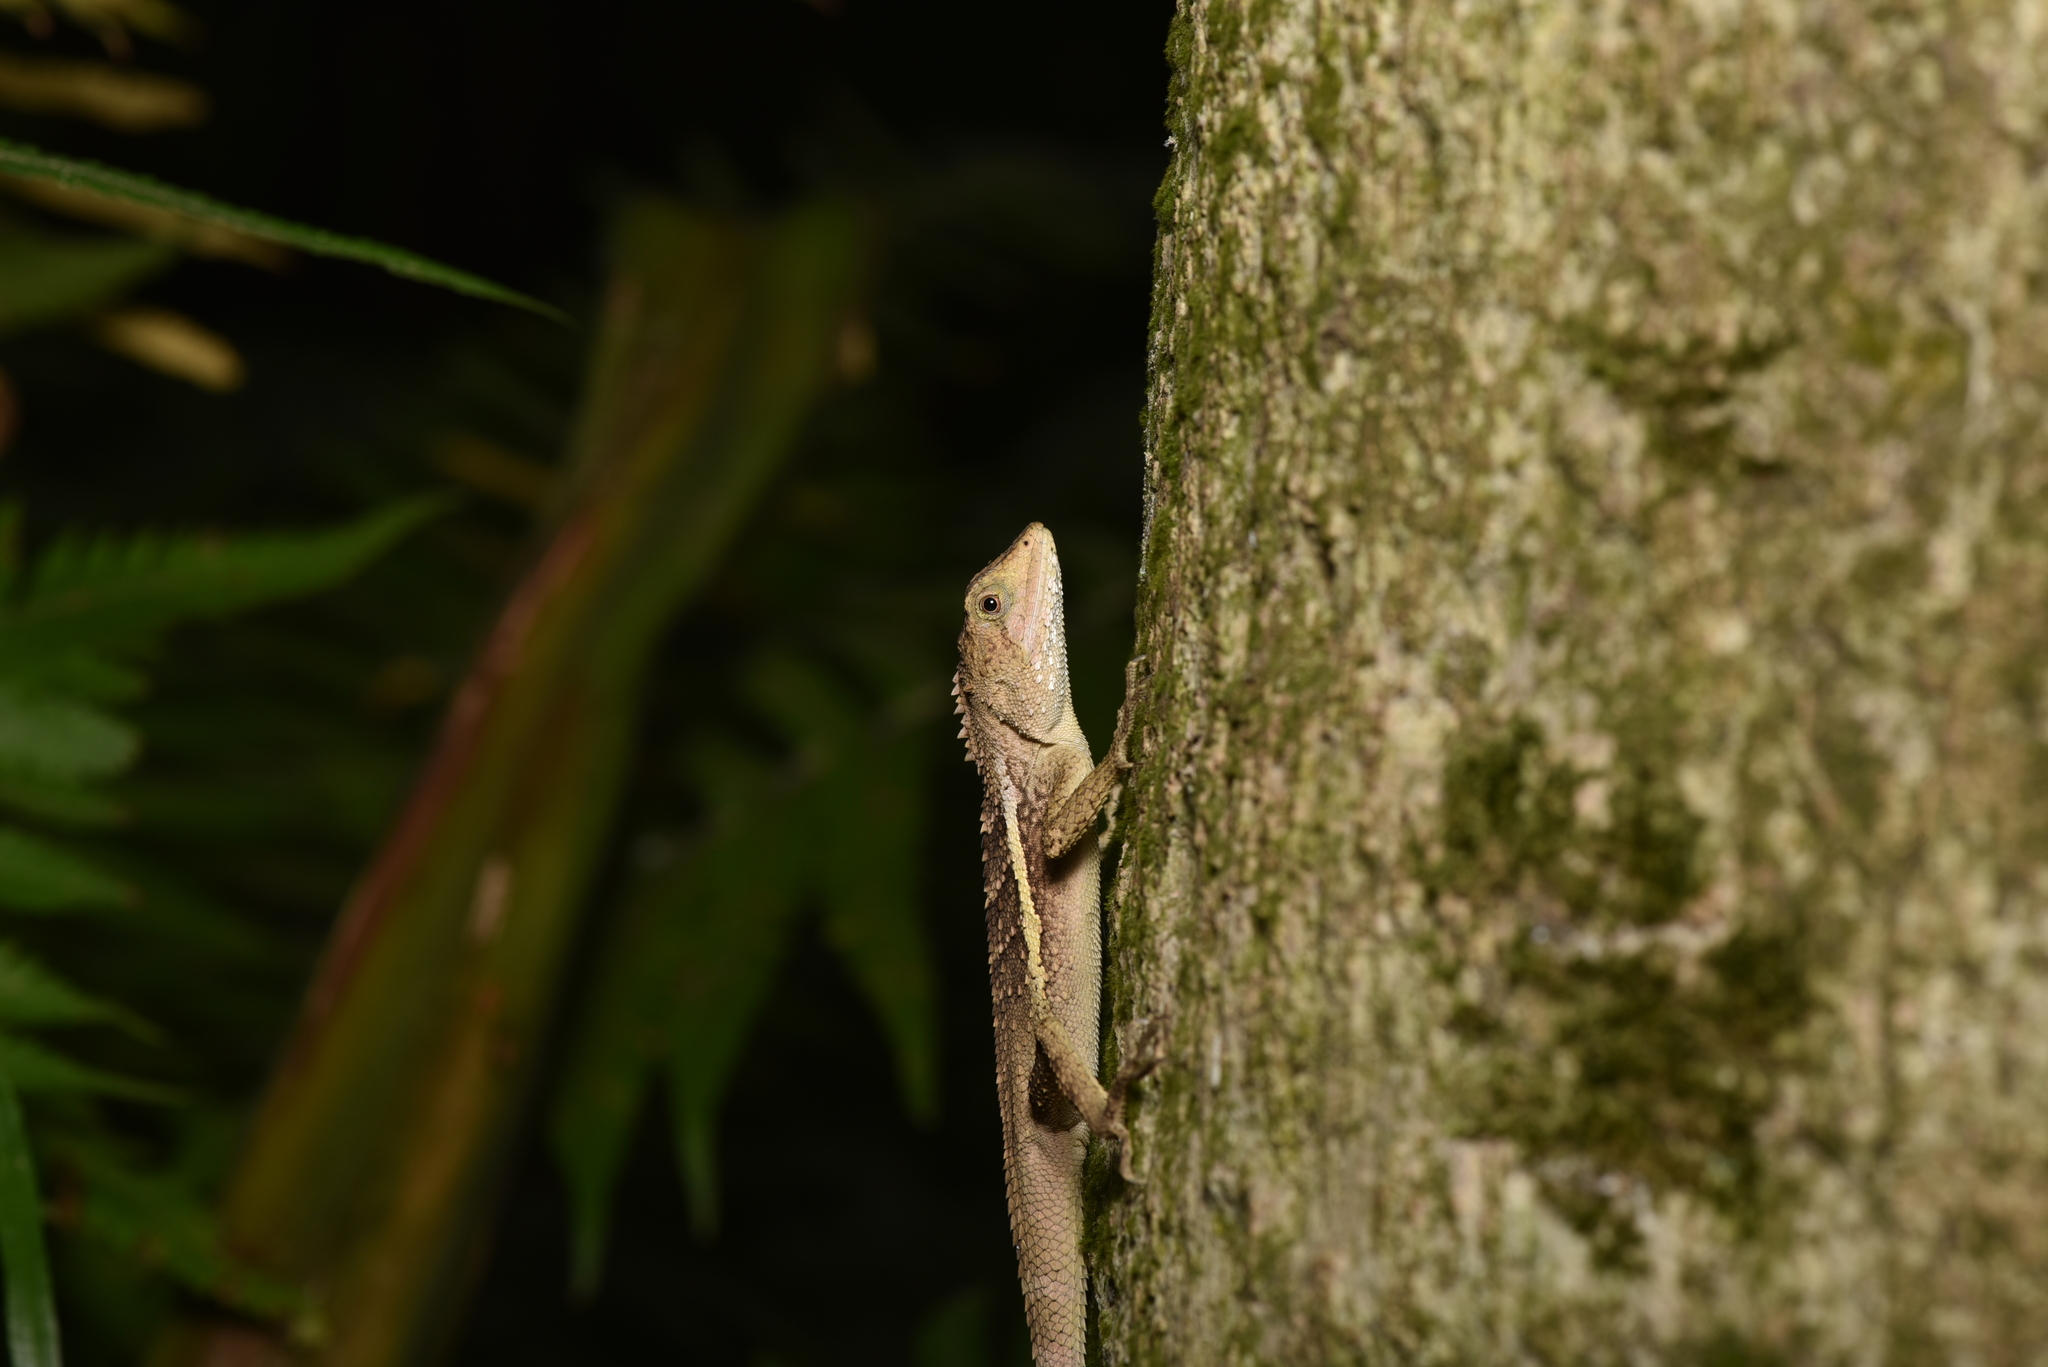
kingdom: Animalia
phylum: Chordata
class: Squamata
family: Agamidae
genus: Diploderma
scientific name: Diploderma swinhonis
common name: Taiwan japalure
